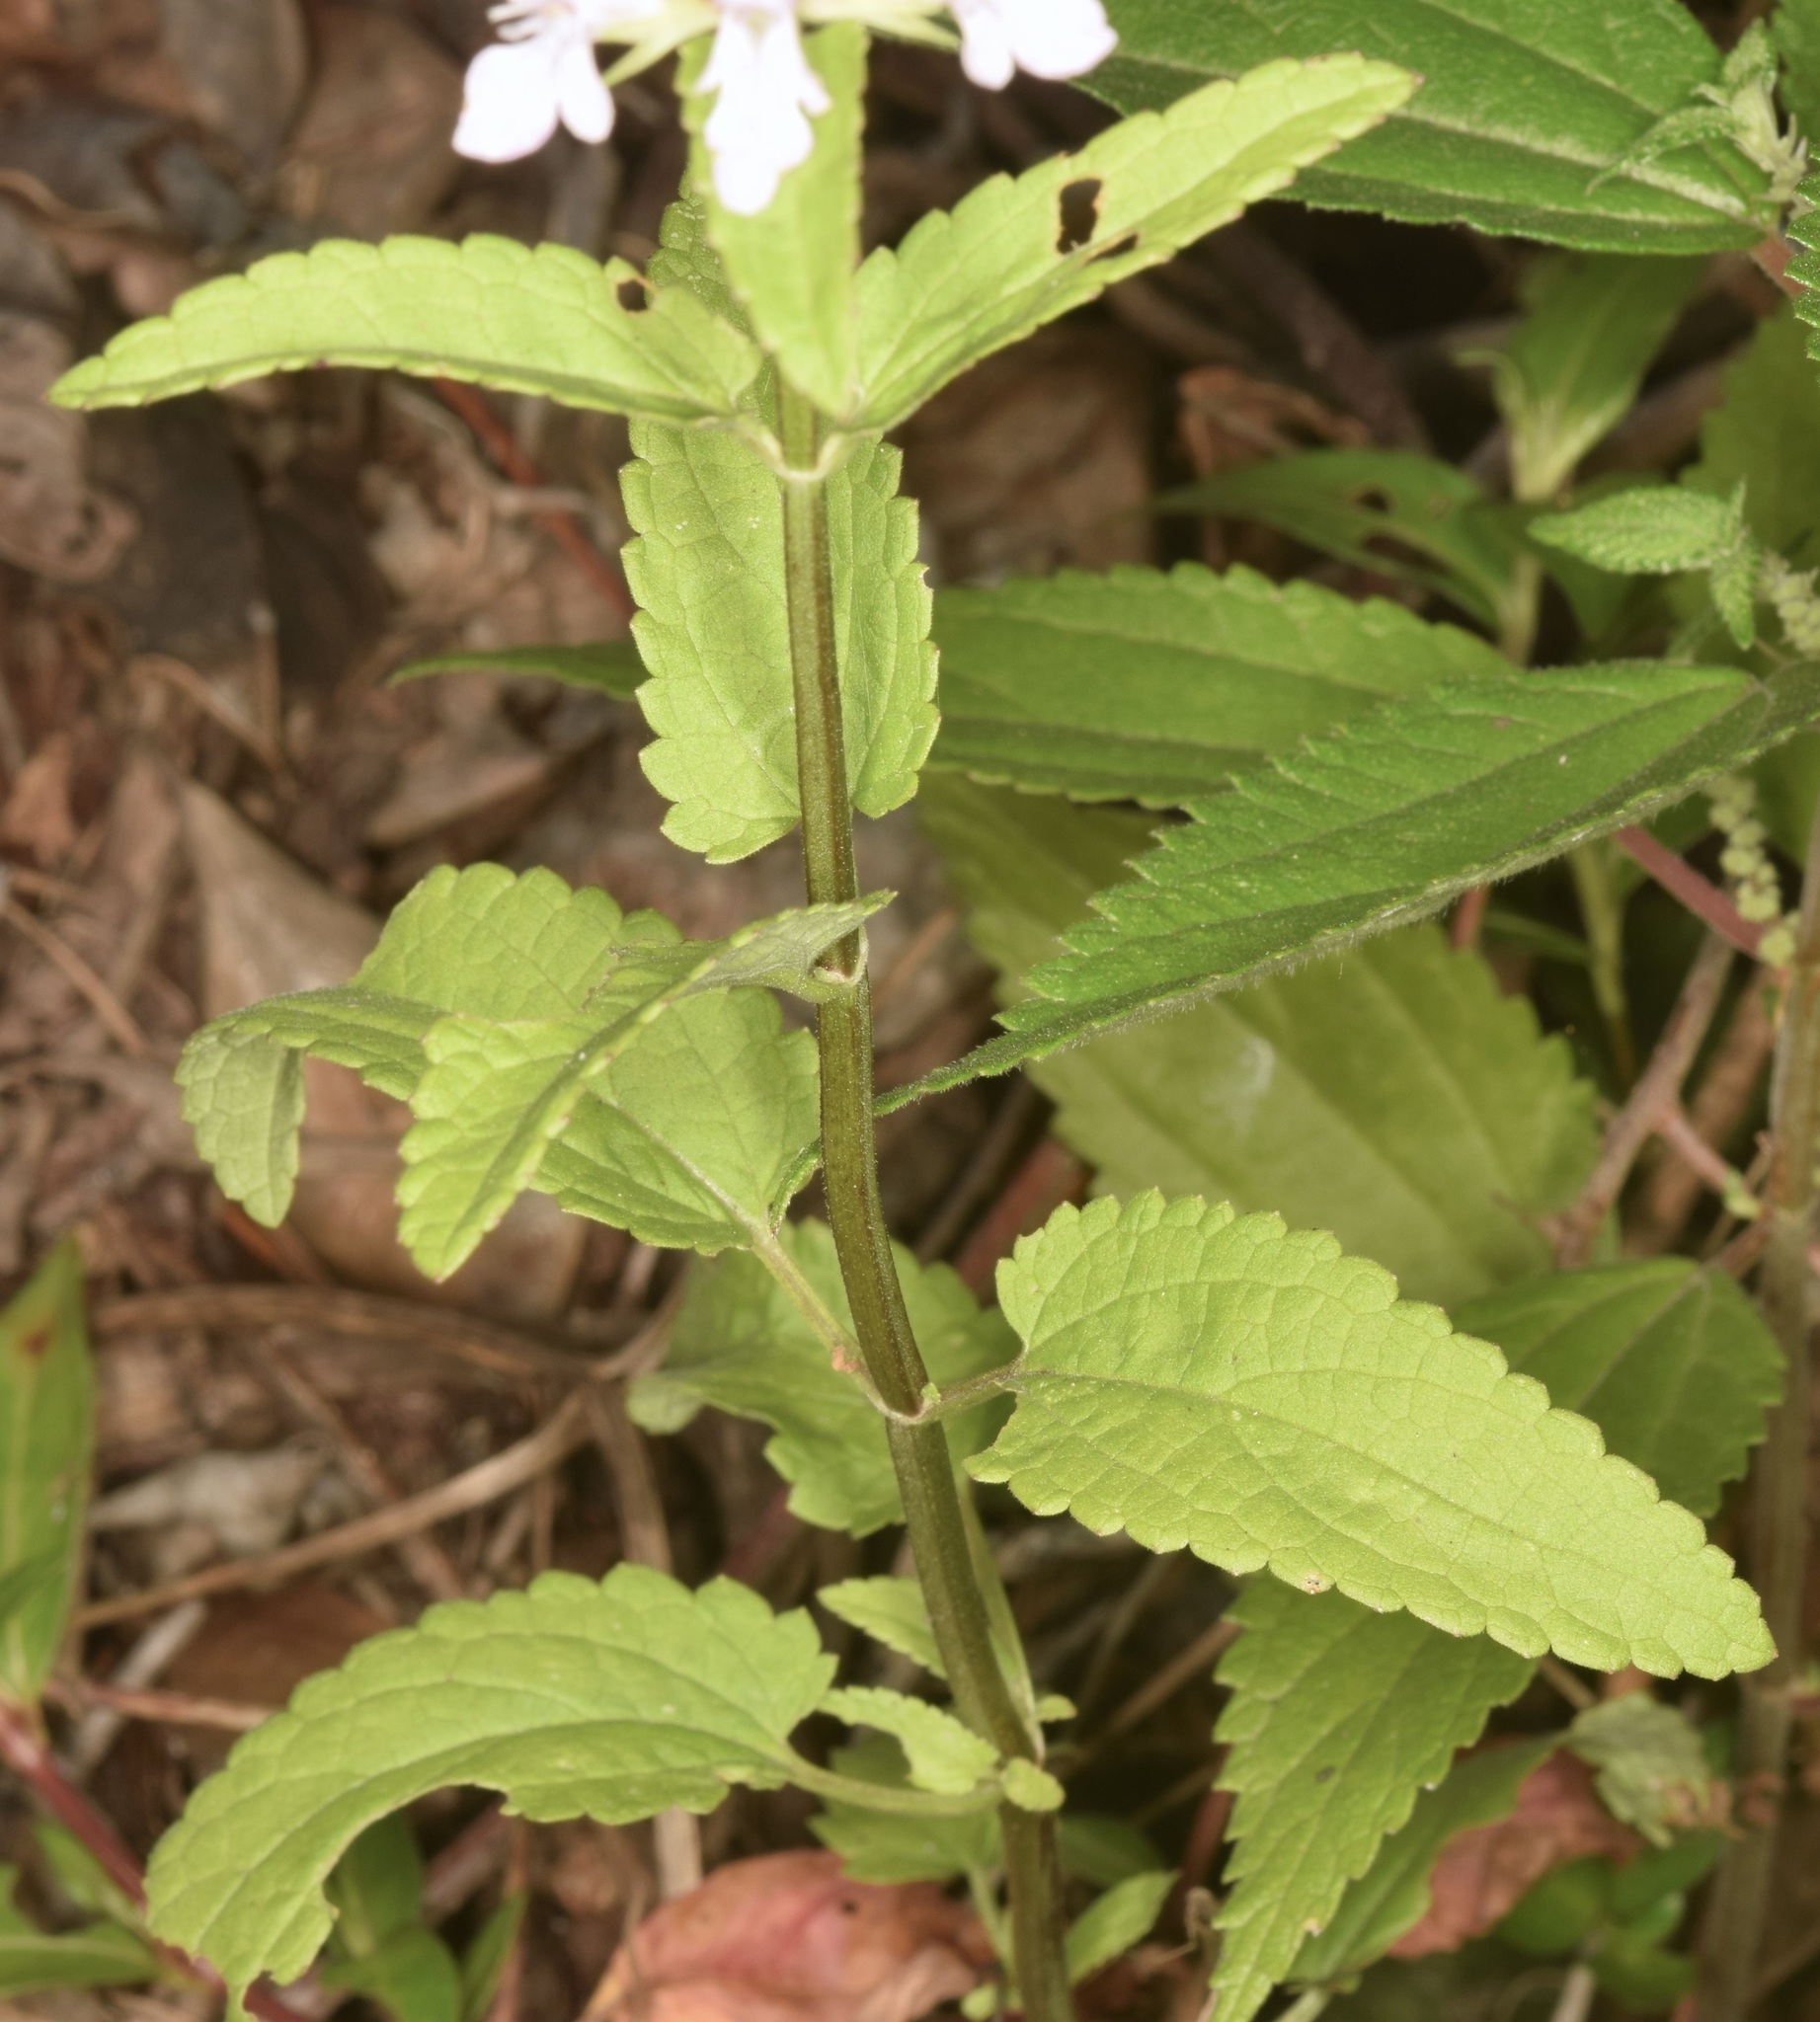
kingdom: Plantae
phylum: Tracheophyta
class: Magnoliopsida
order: Lamiales
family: Lamiaceae
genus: Stachys
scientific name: Stachys floridana
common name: Florida betony
